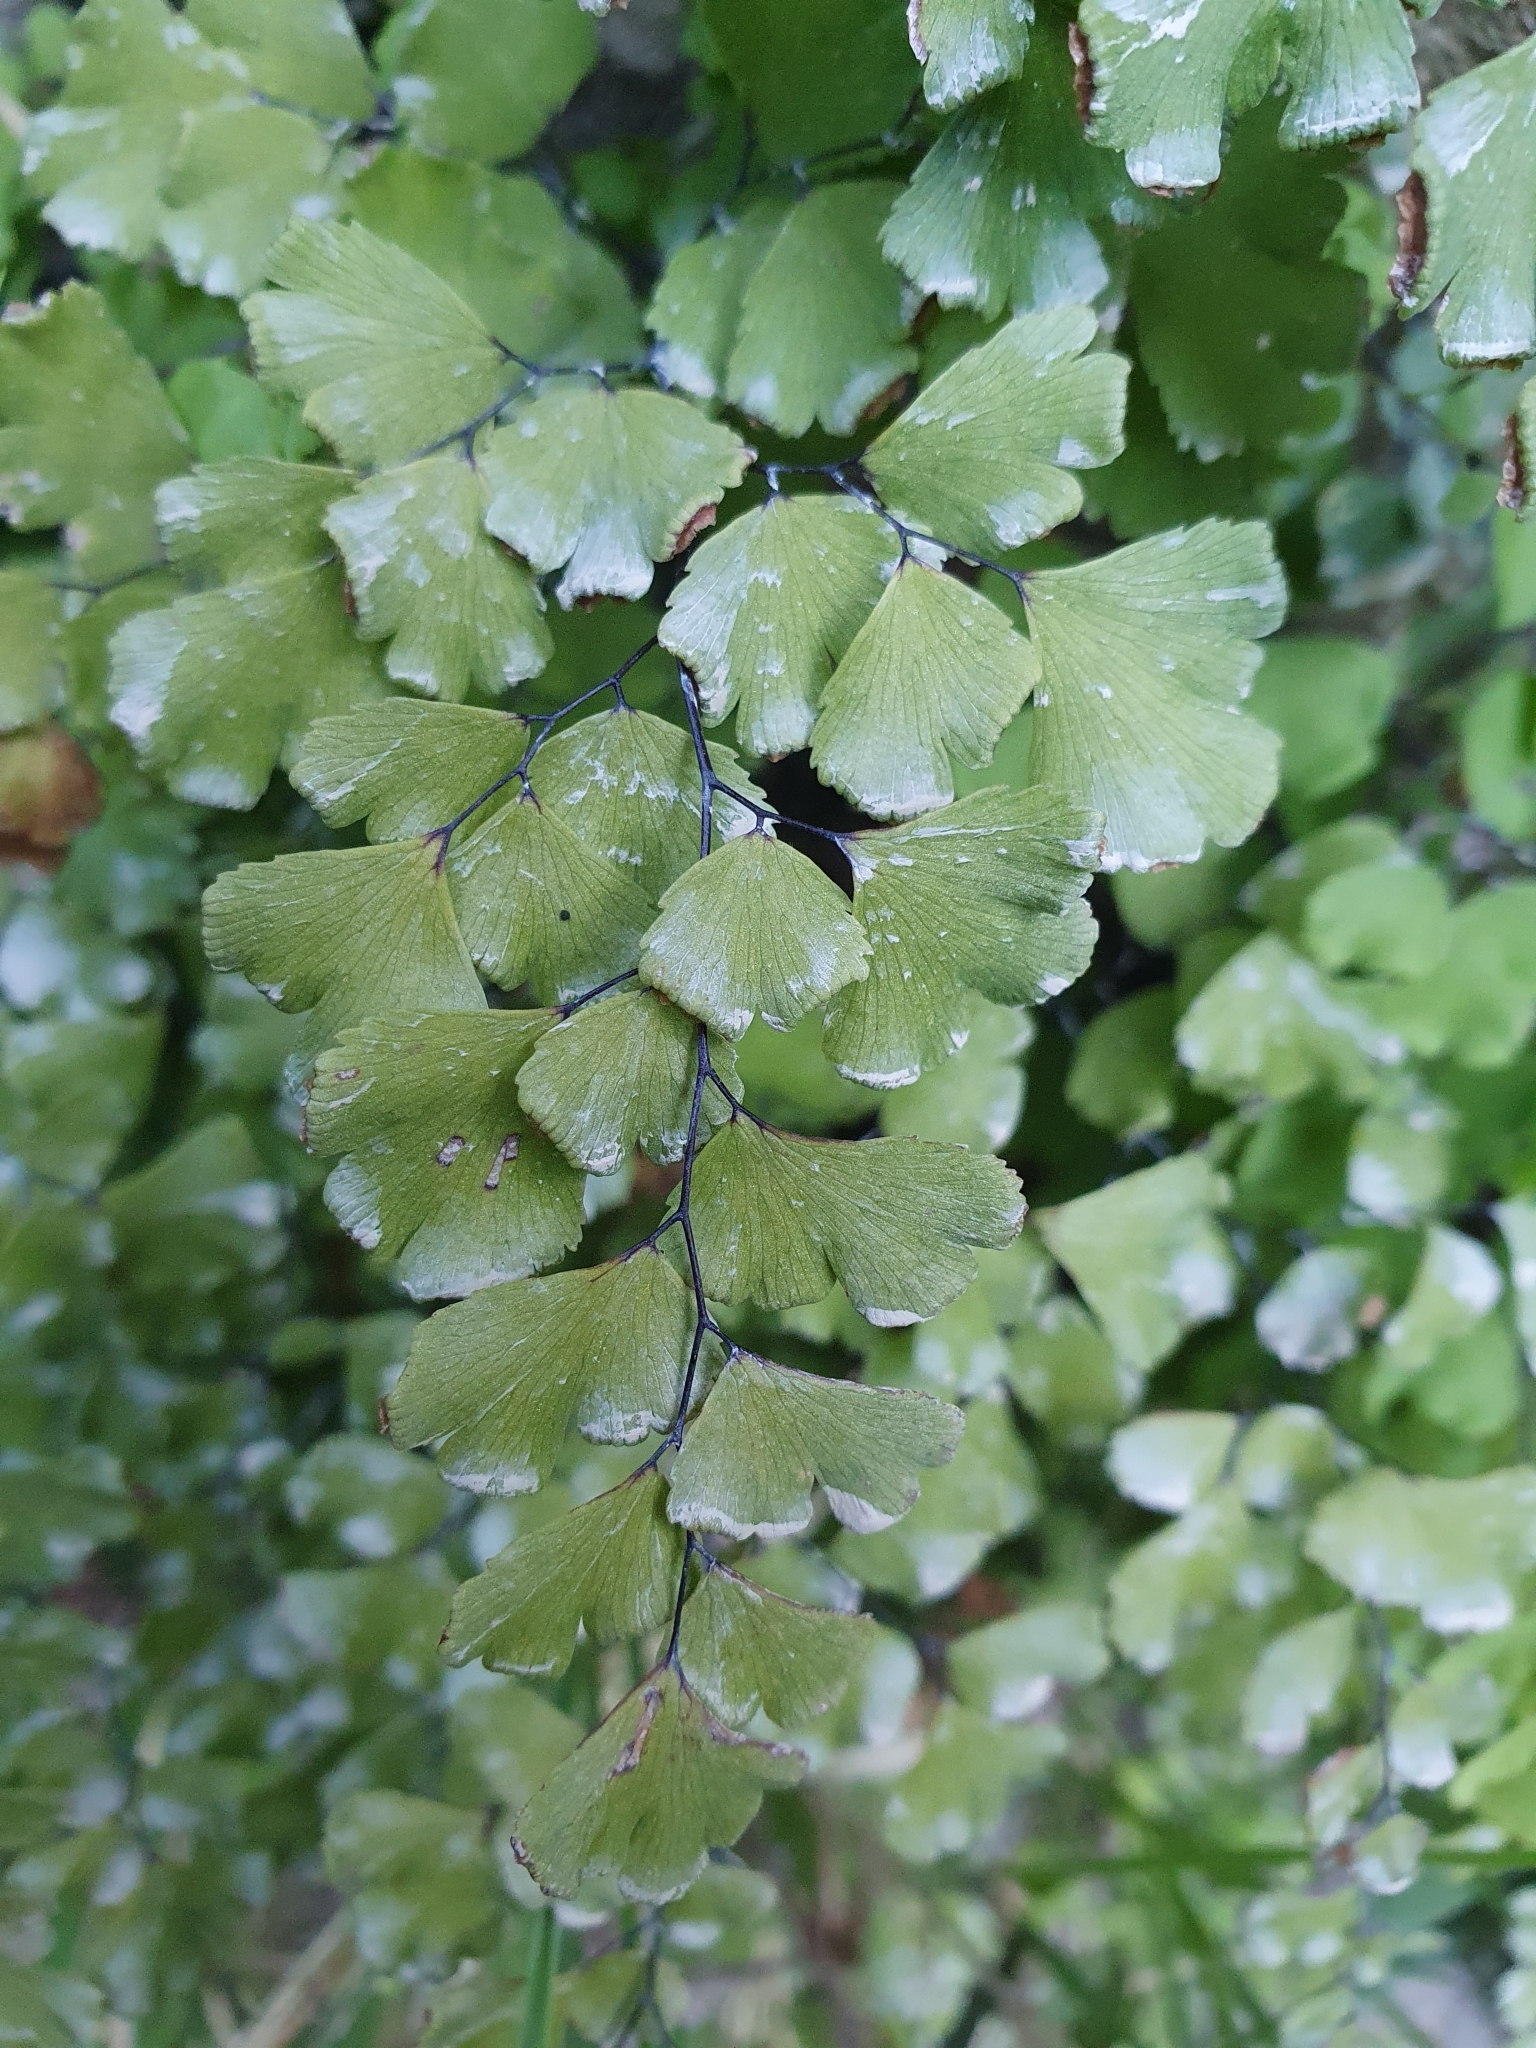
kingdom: Plantae
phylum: Tracheophyta
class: Polypodiopsida
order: Polypodiales
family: Pteridaceae
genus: Adiantum
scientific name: Adiantum capillus-veneris
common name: Maidenhair fern
